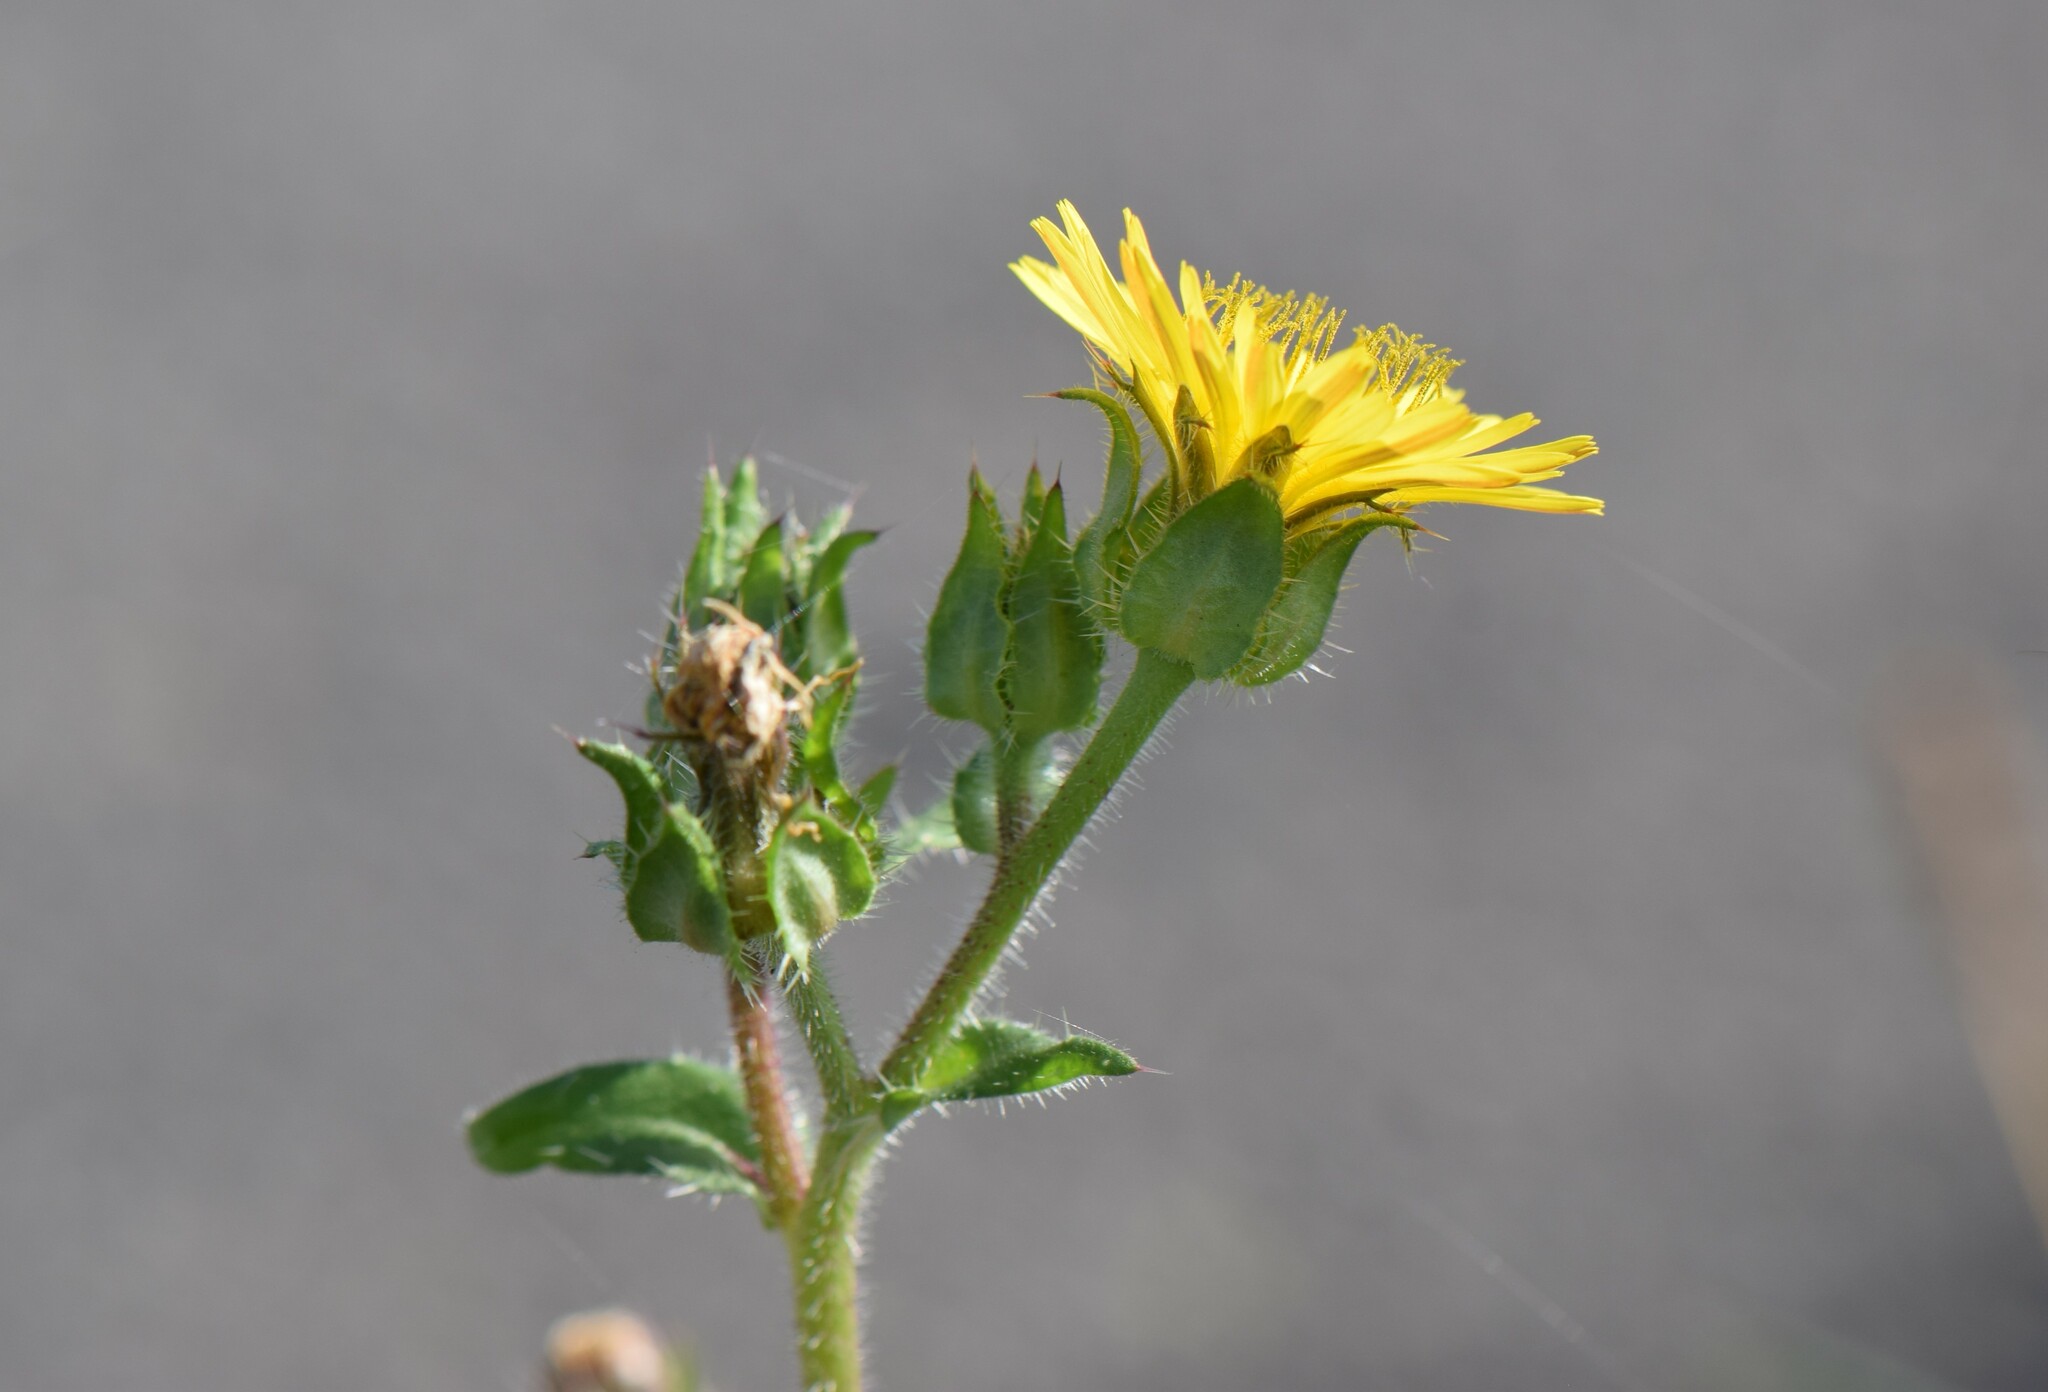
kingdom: Plantae
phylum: Tracheophyta
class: Magnoliopsida
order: Asterales
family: Asteraceae
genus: Helminthotheca
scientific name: Helminthotheca echioides
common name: Ox-tongue
